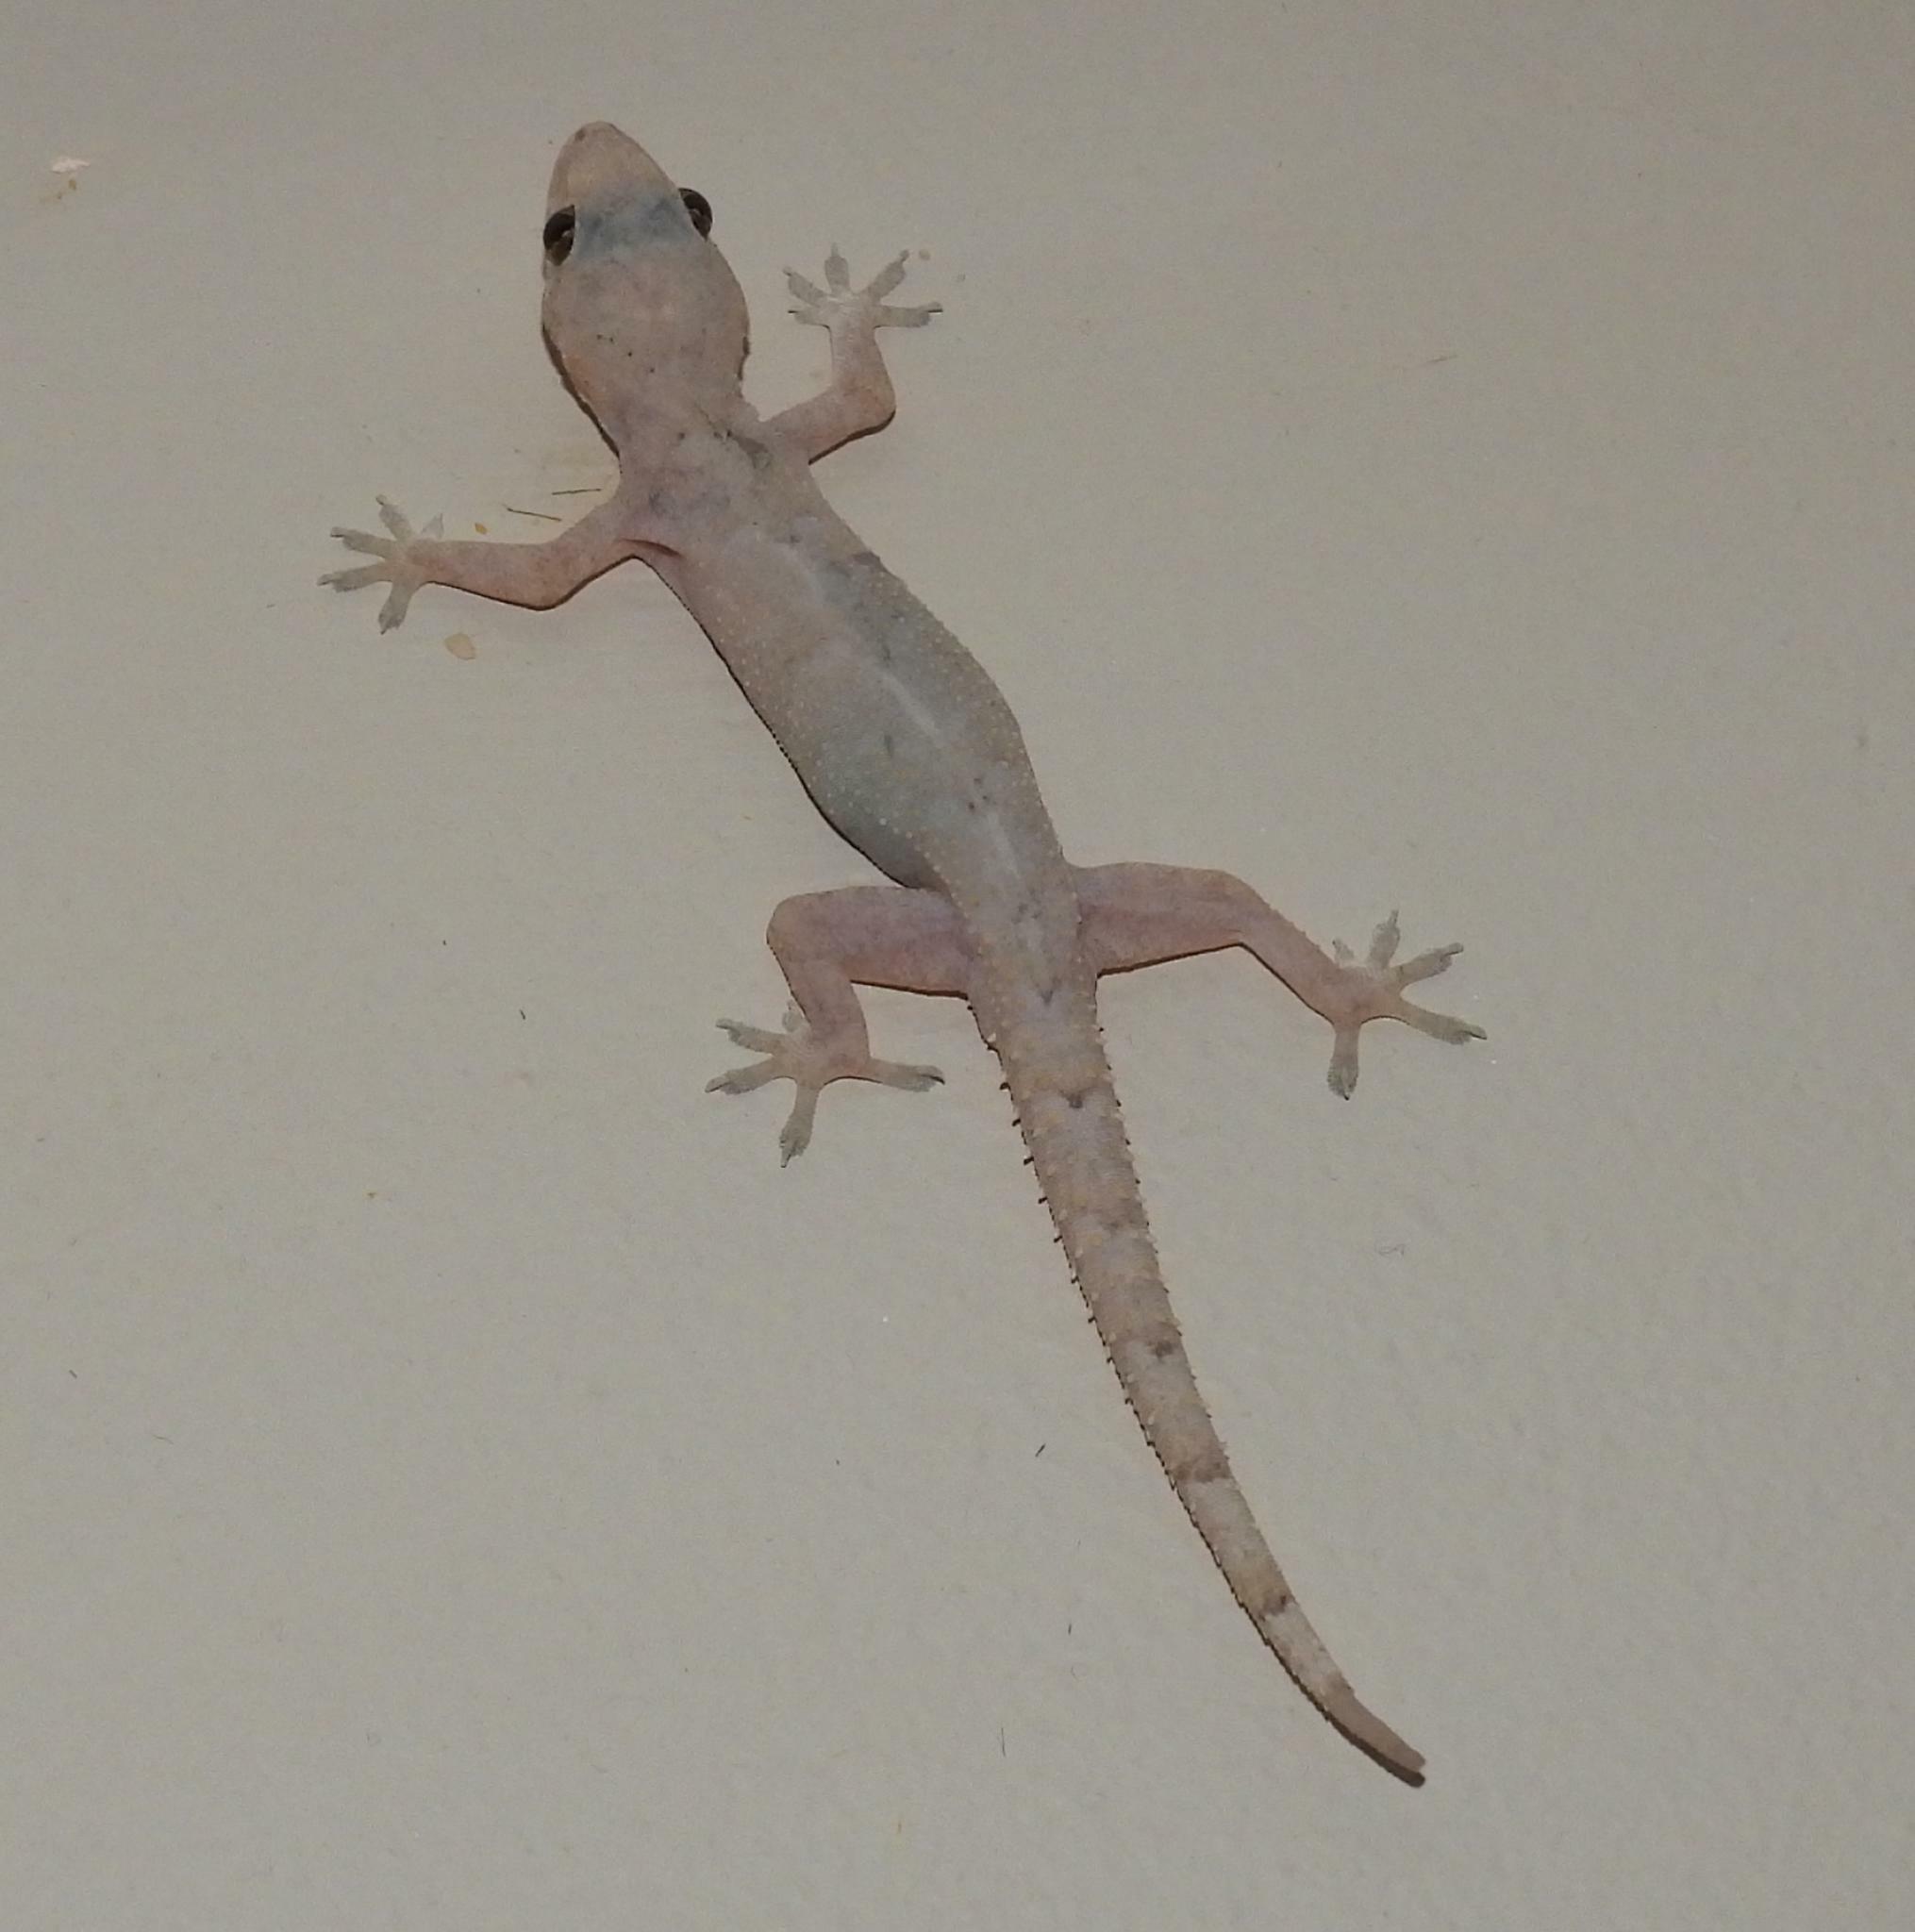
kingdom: Animalia
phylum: Chordata
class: Squamata
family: Gekkonidae
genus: Hemidactylus
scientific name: Hemidactylus mabouia
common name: House gecko
